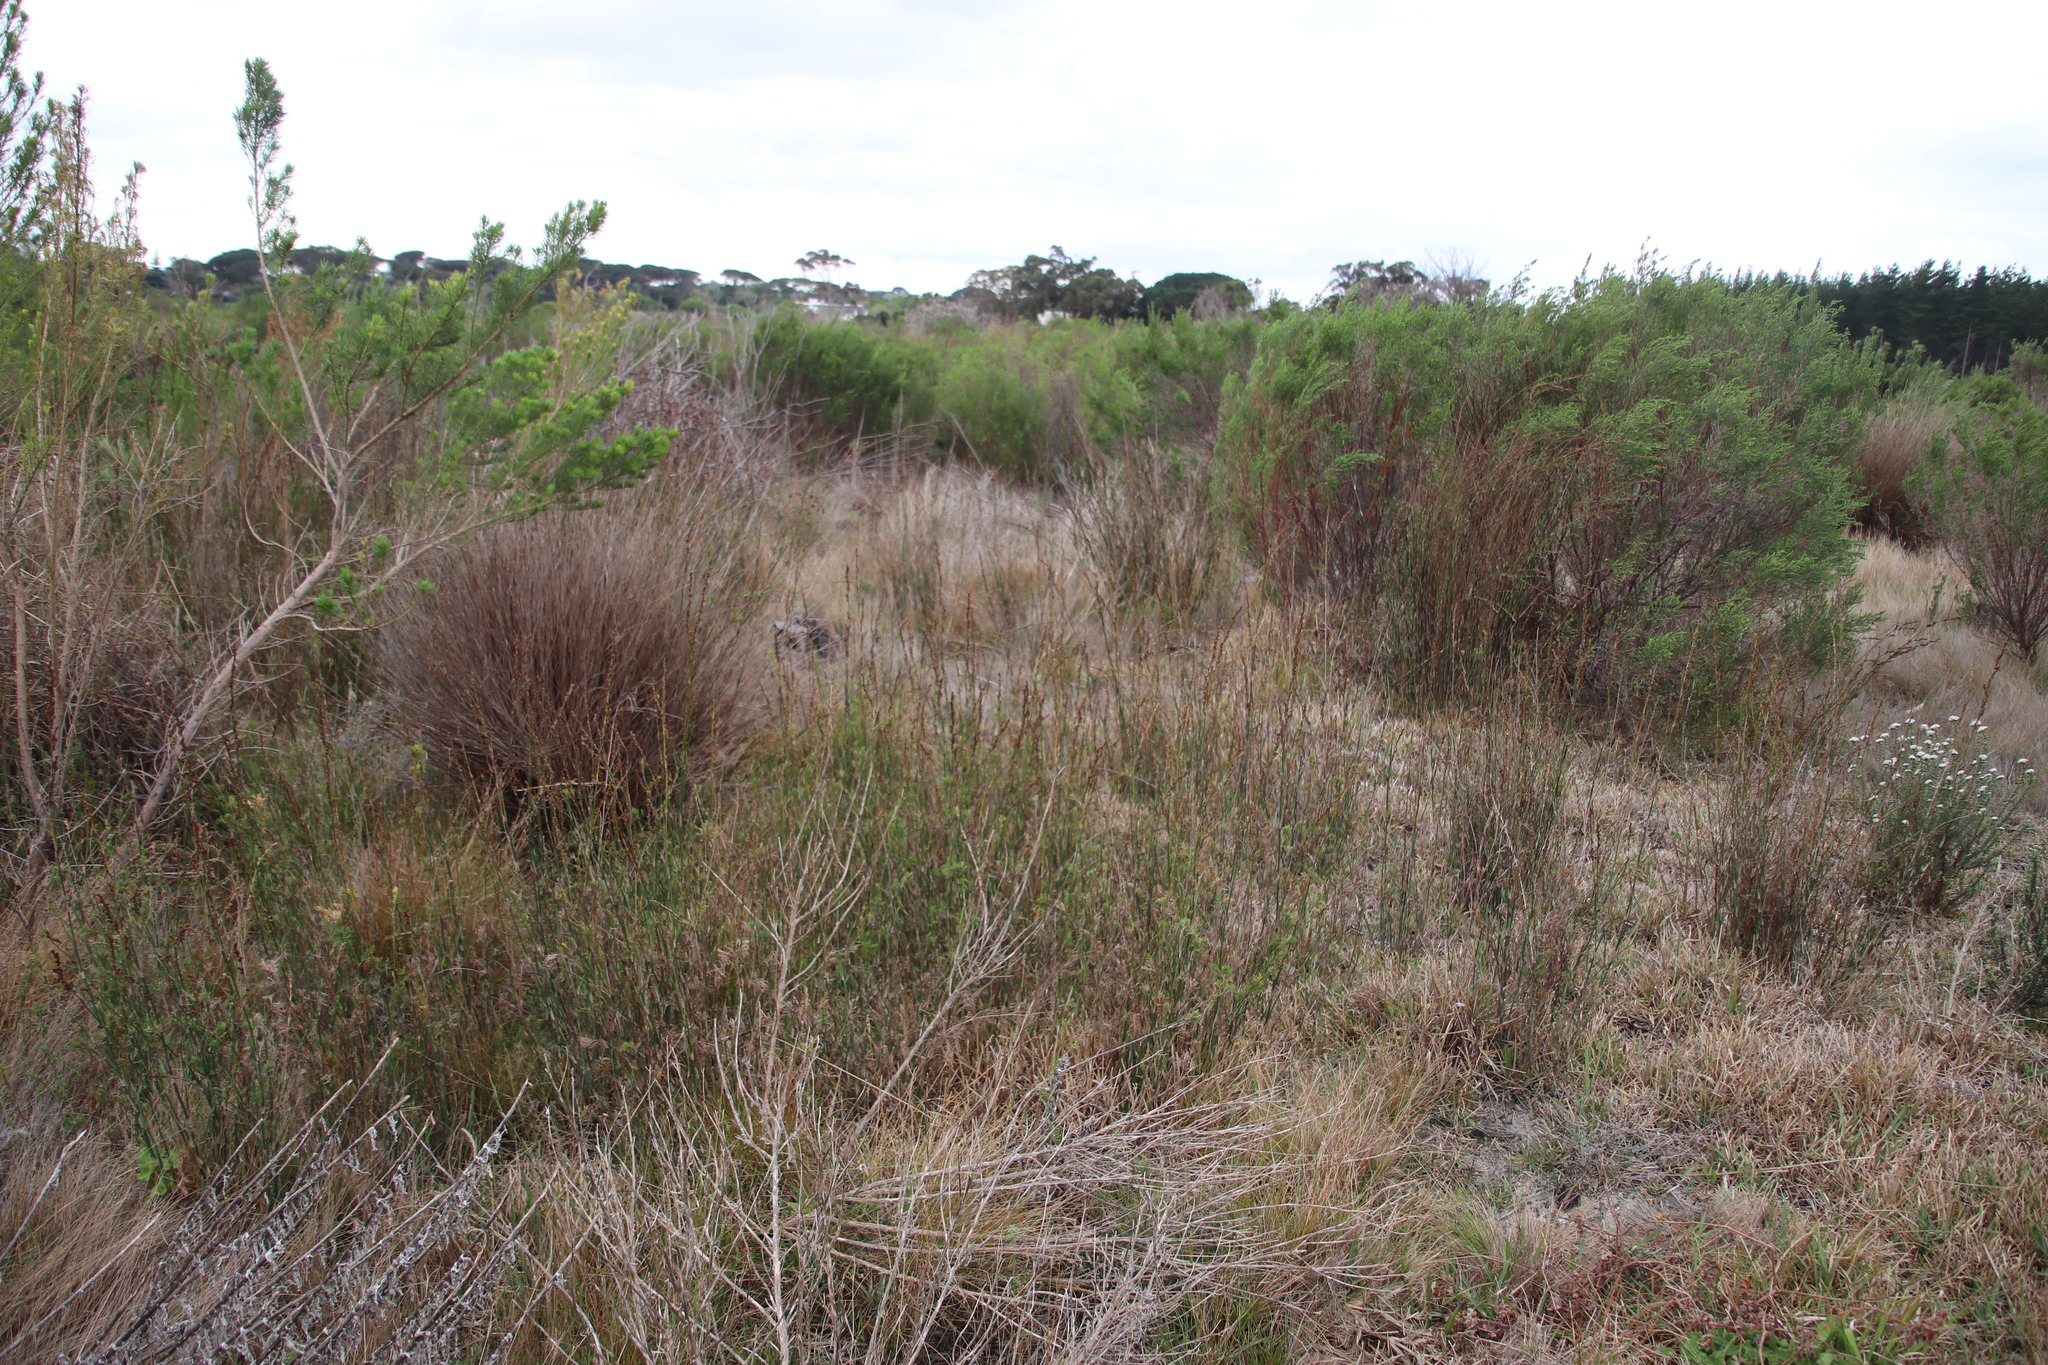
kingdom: Plantae
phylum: Tracheophyta
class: Liliopsida
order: Poales
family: Restionaceae
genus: Restio
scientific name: Restio tetragonus
